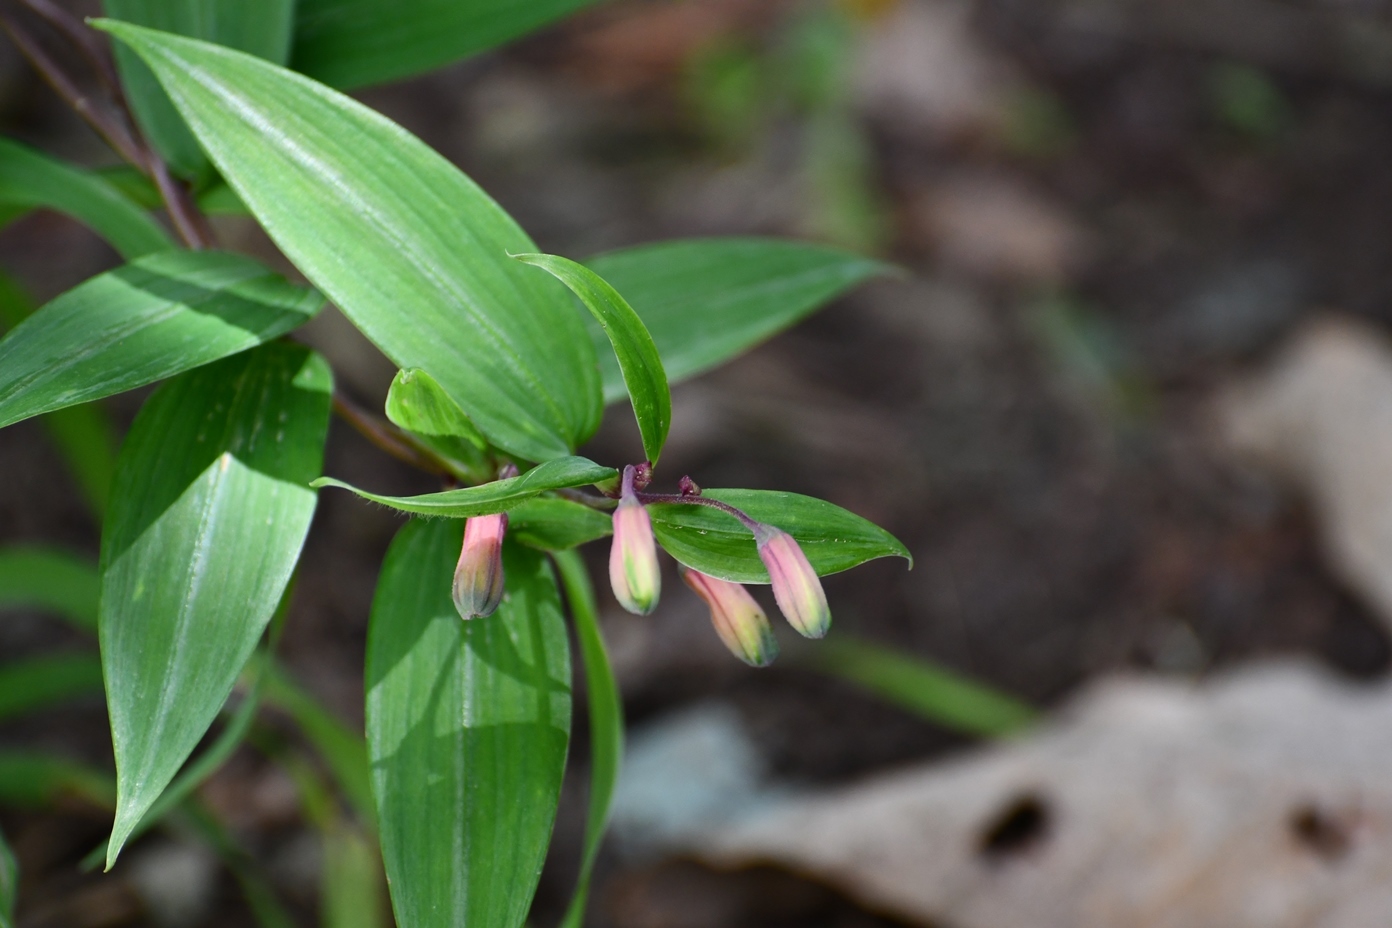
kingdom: Plantae
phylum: Tracheophyta
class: Liliopsida
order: Liliales
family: Alstroemeriaceae
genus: Bomarea
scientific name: Bomarea edulis
